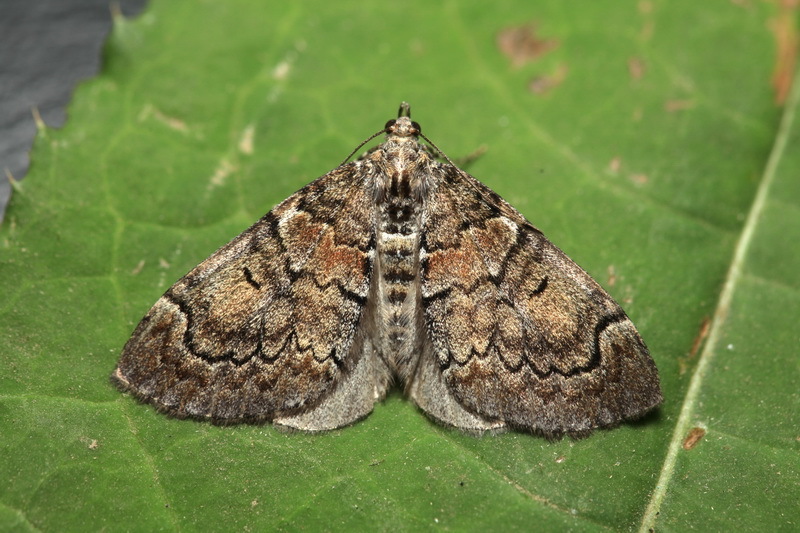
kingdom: Animalia
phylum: Arthropoda
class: Insecta
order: Lepidoptera
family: Geometridae
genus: Heterothera
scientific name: Heterothera taigana
